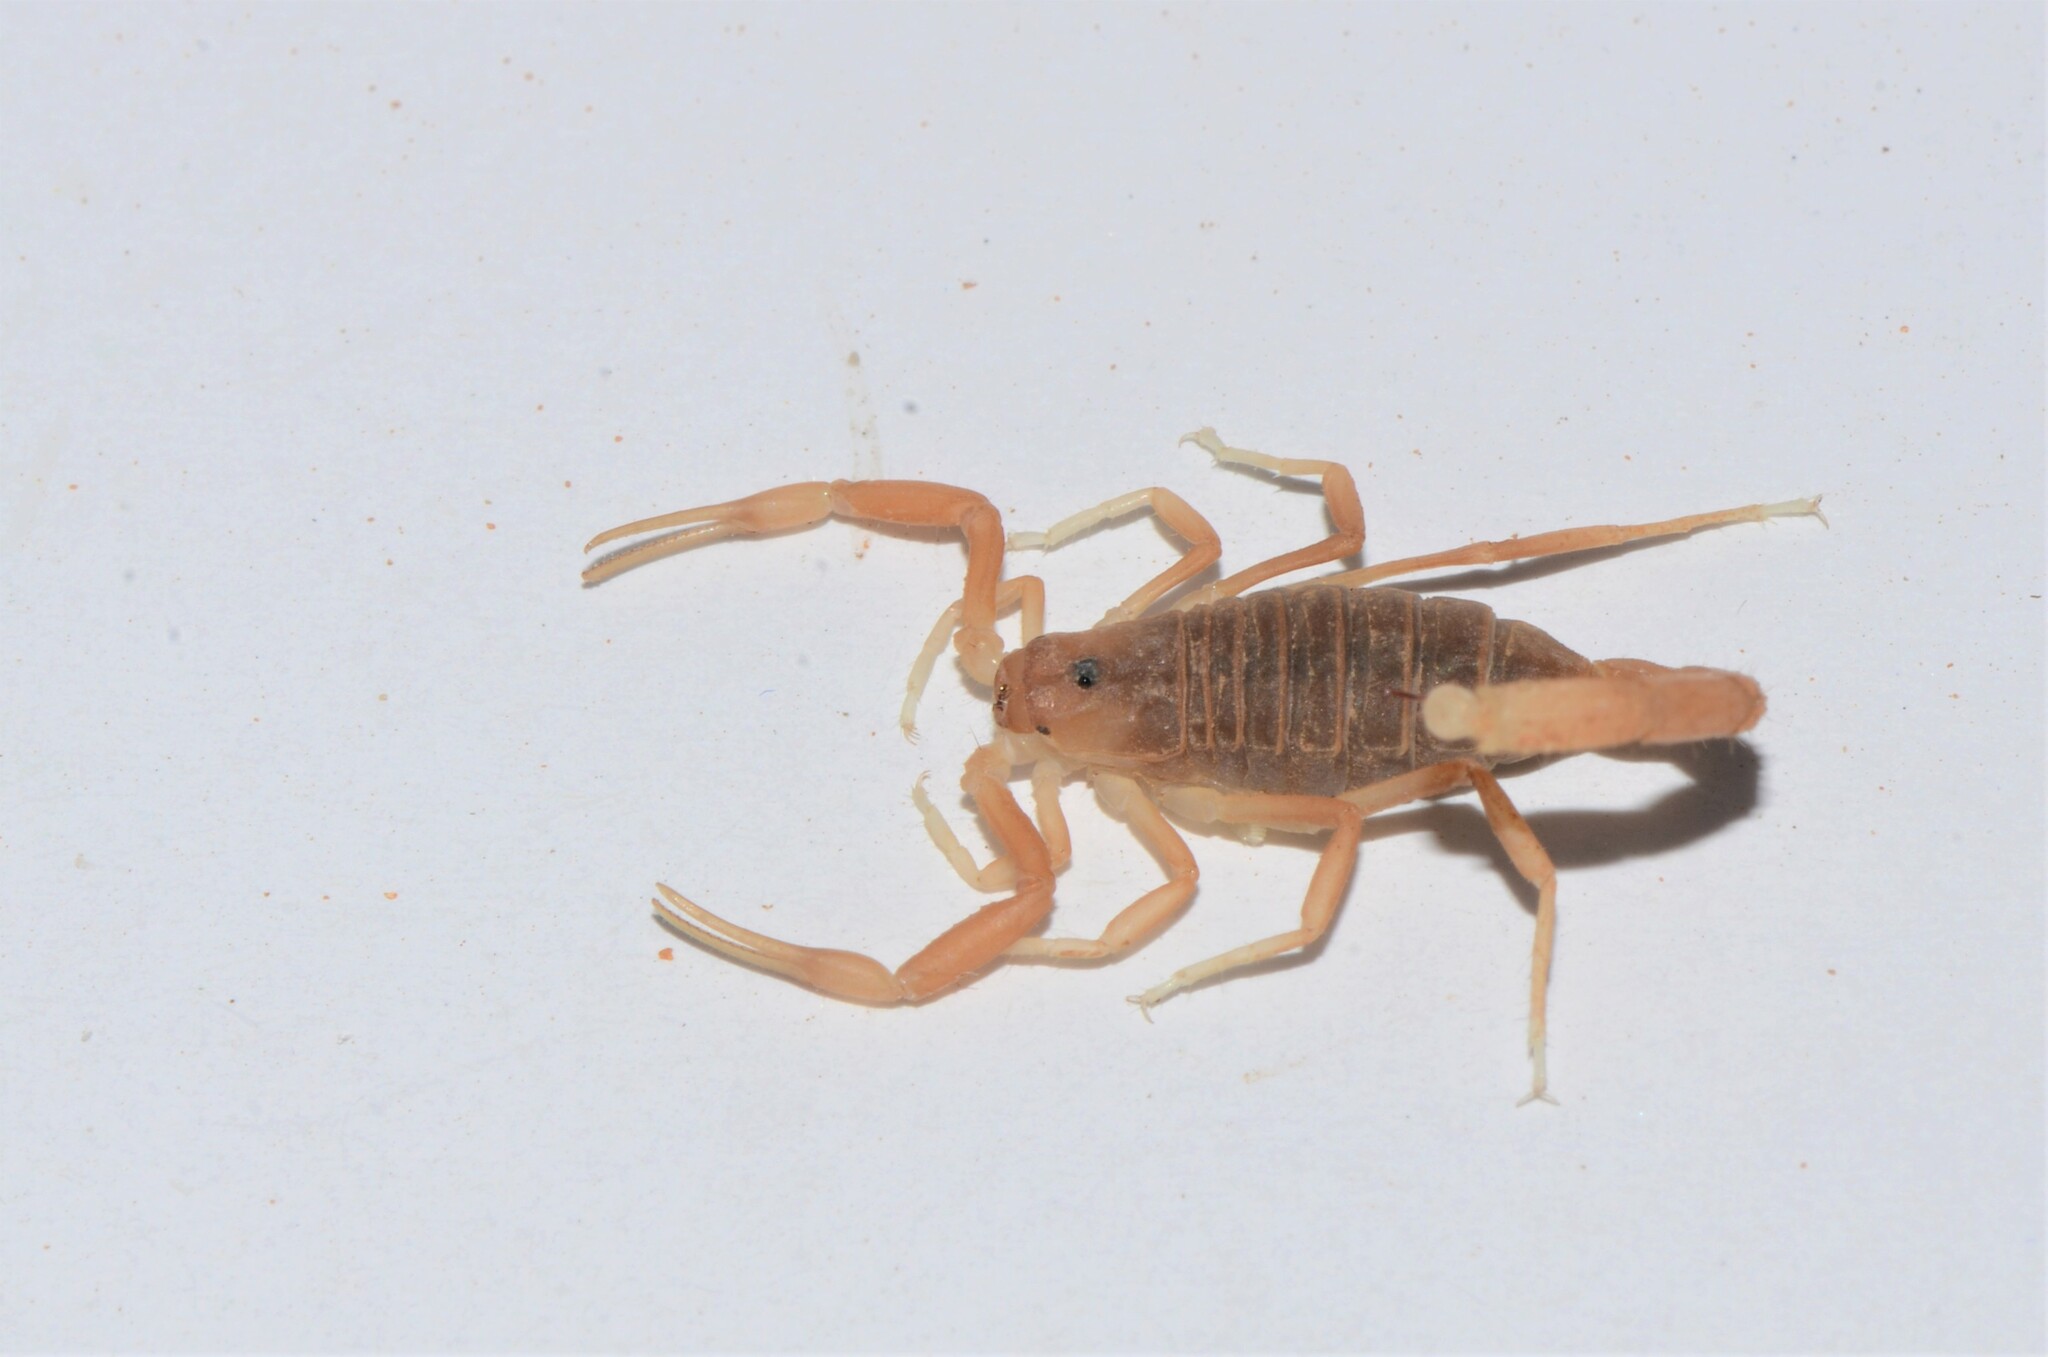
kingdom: Animalia
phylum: Arthropoda
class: Arachnida
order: Scorpiones
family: Buthidae
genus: Parabuthus
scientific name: Parabuthus granulatus
